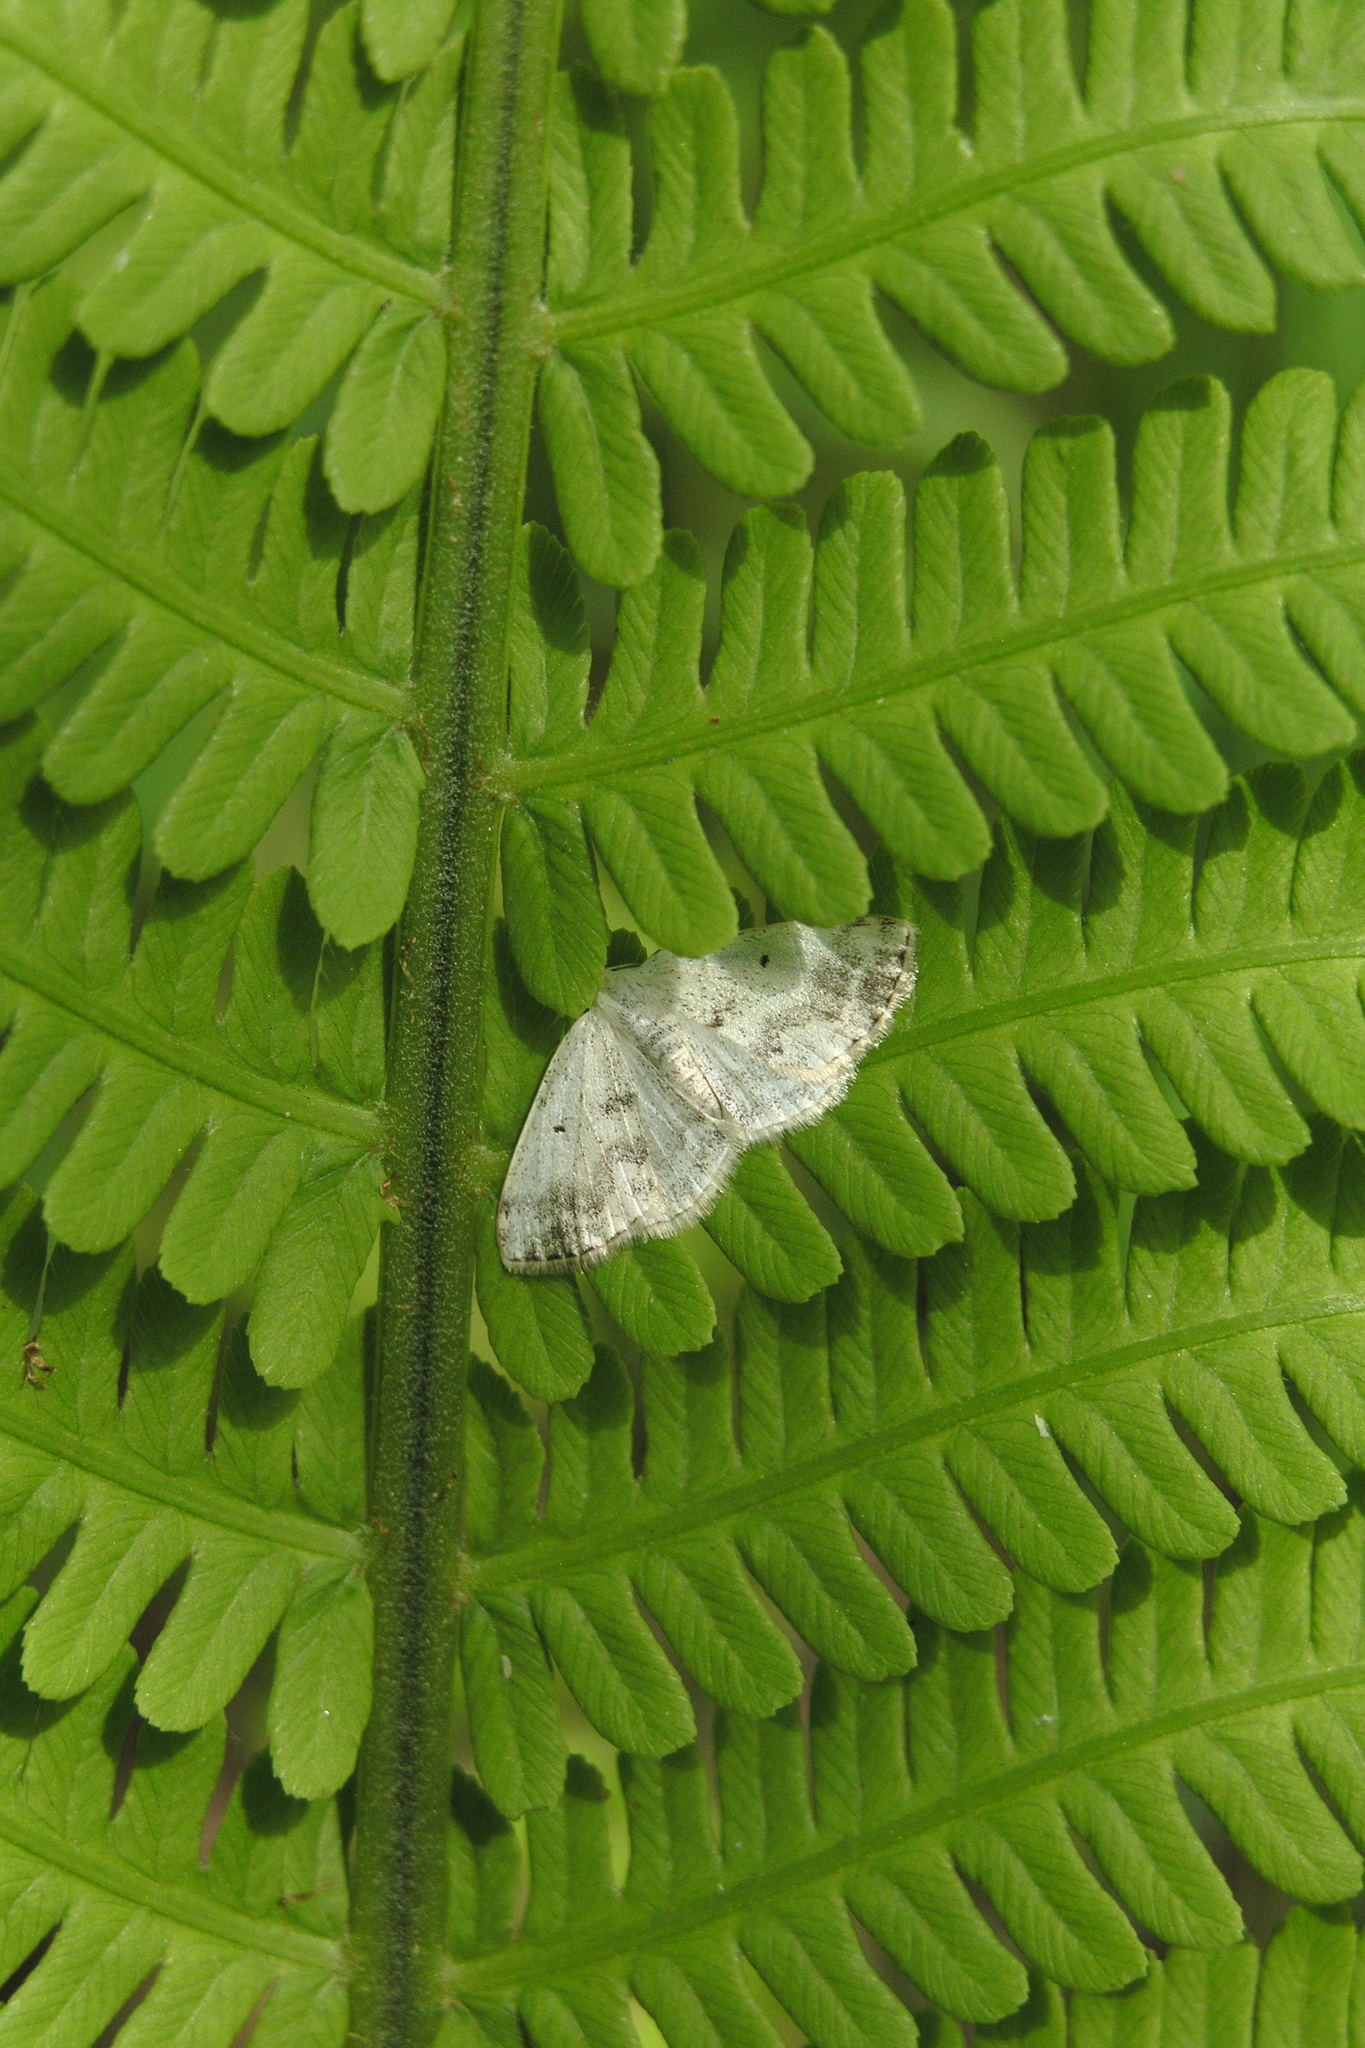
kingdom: Animalia
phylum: Arthropoda
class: Insecta
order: Lepidoptera
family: Geometridae
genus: Lomographa
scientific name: Lomographa temerata
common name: Clouded silver
